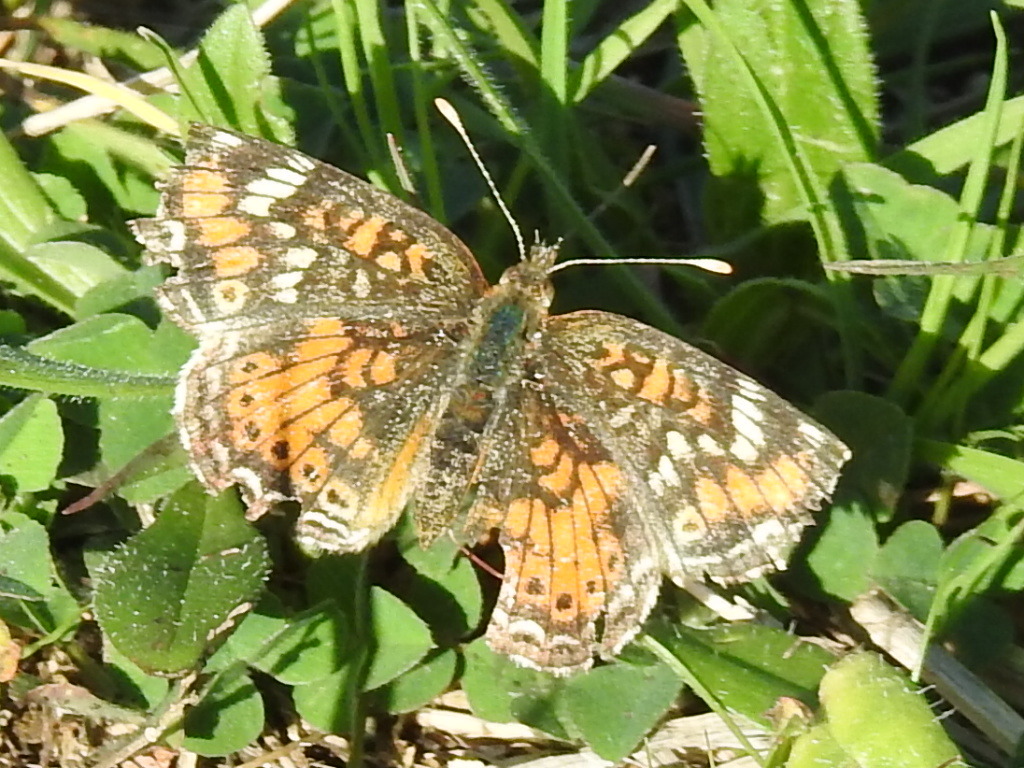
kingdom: Animalia
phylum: Arthropoda
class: Insecta
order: Lepidoptera
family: Nymphalidae
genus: Phyciodes
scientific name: Phyciodes phaon
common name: Phaon crescent
